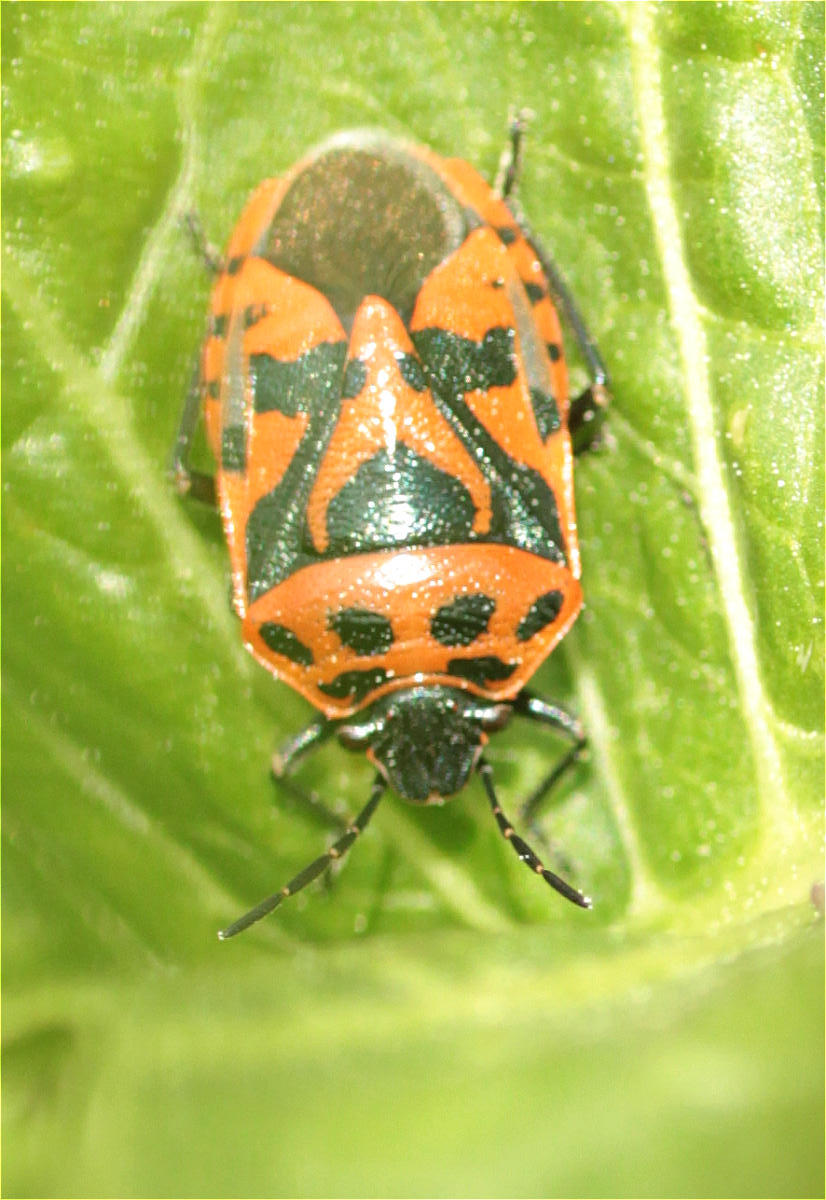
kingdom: Animalia
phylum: Arthropoda
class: Insecta
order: Hemiptera
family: Pentatomidae
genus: Eurydema
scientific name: Eurydema ornata
